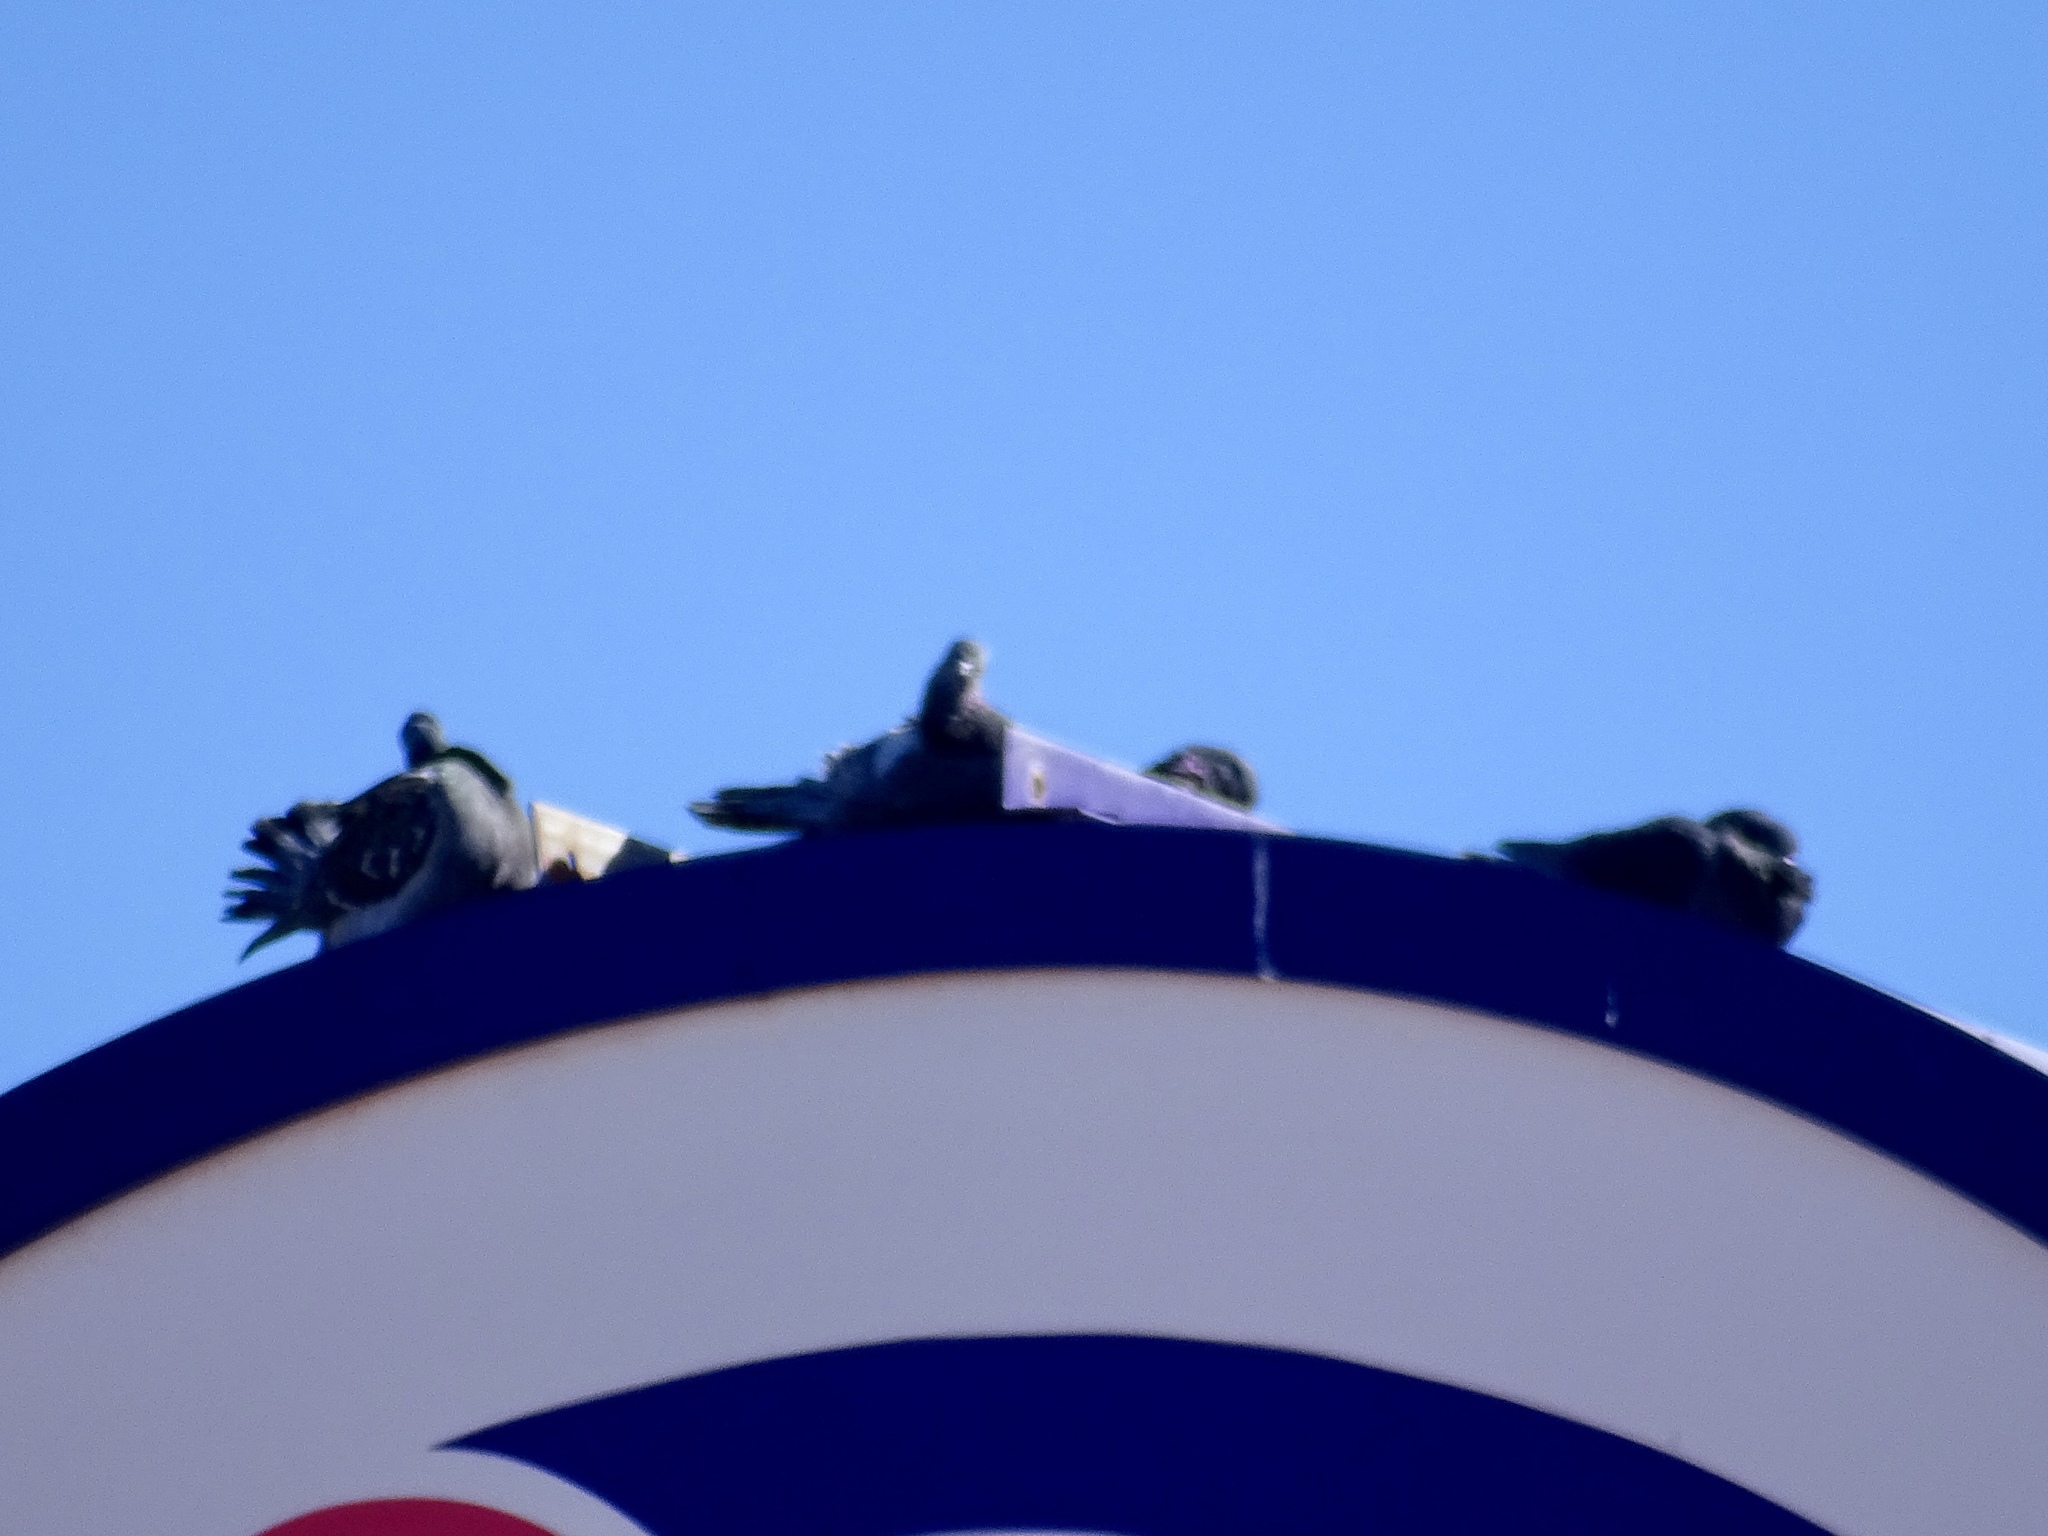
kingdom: Animalia
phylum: Chordata
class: Aves
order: Columbiformes
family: Columbidae
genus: Columba
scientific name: Columba livia
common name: Rock pigeon
